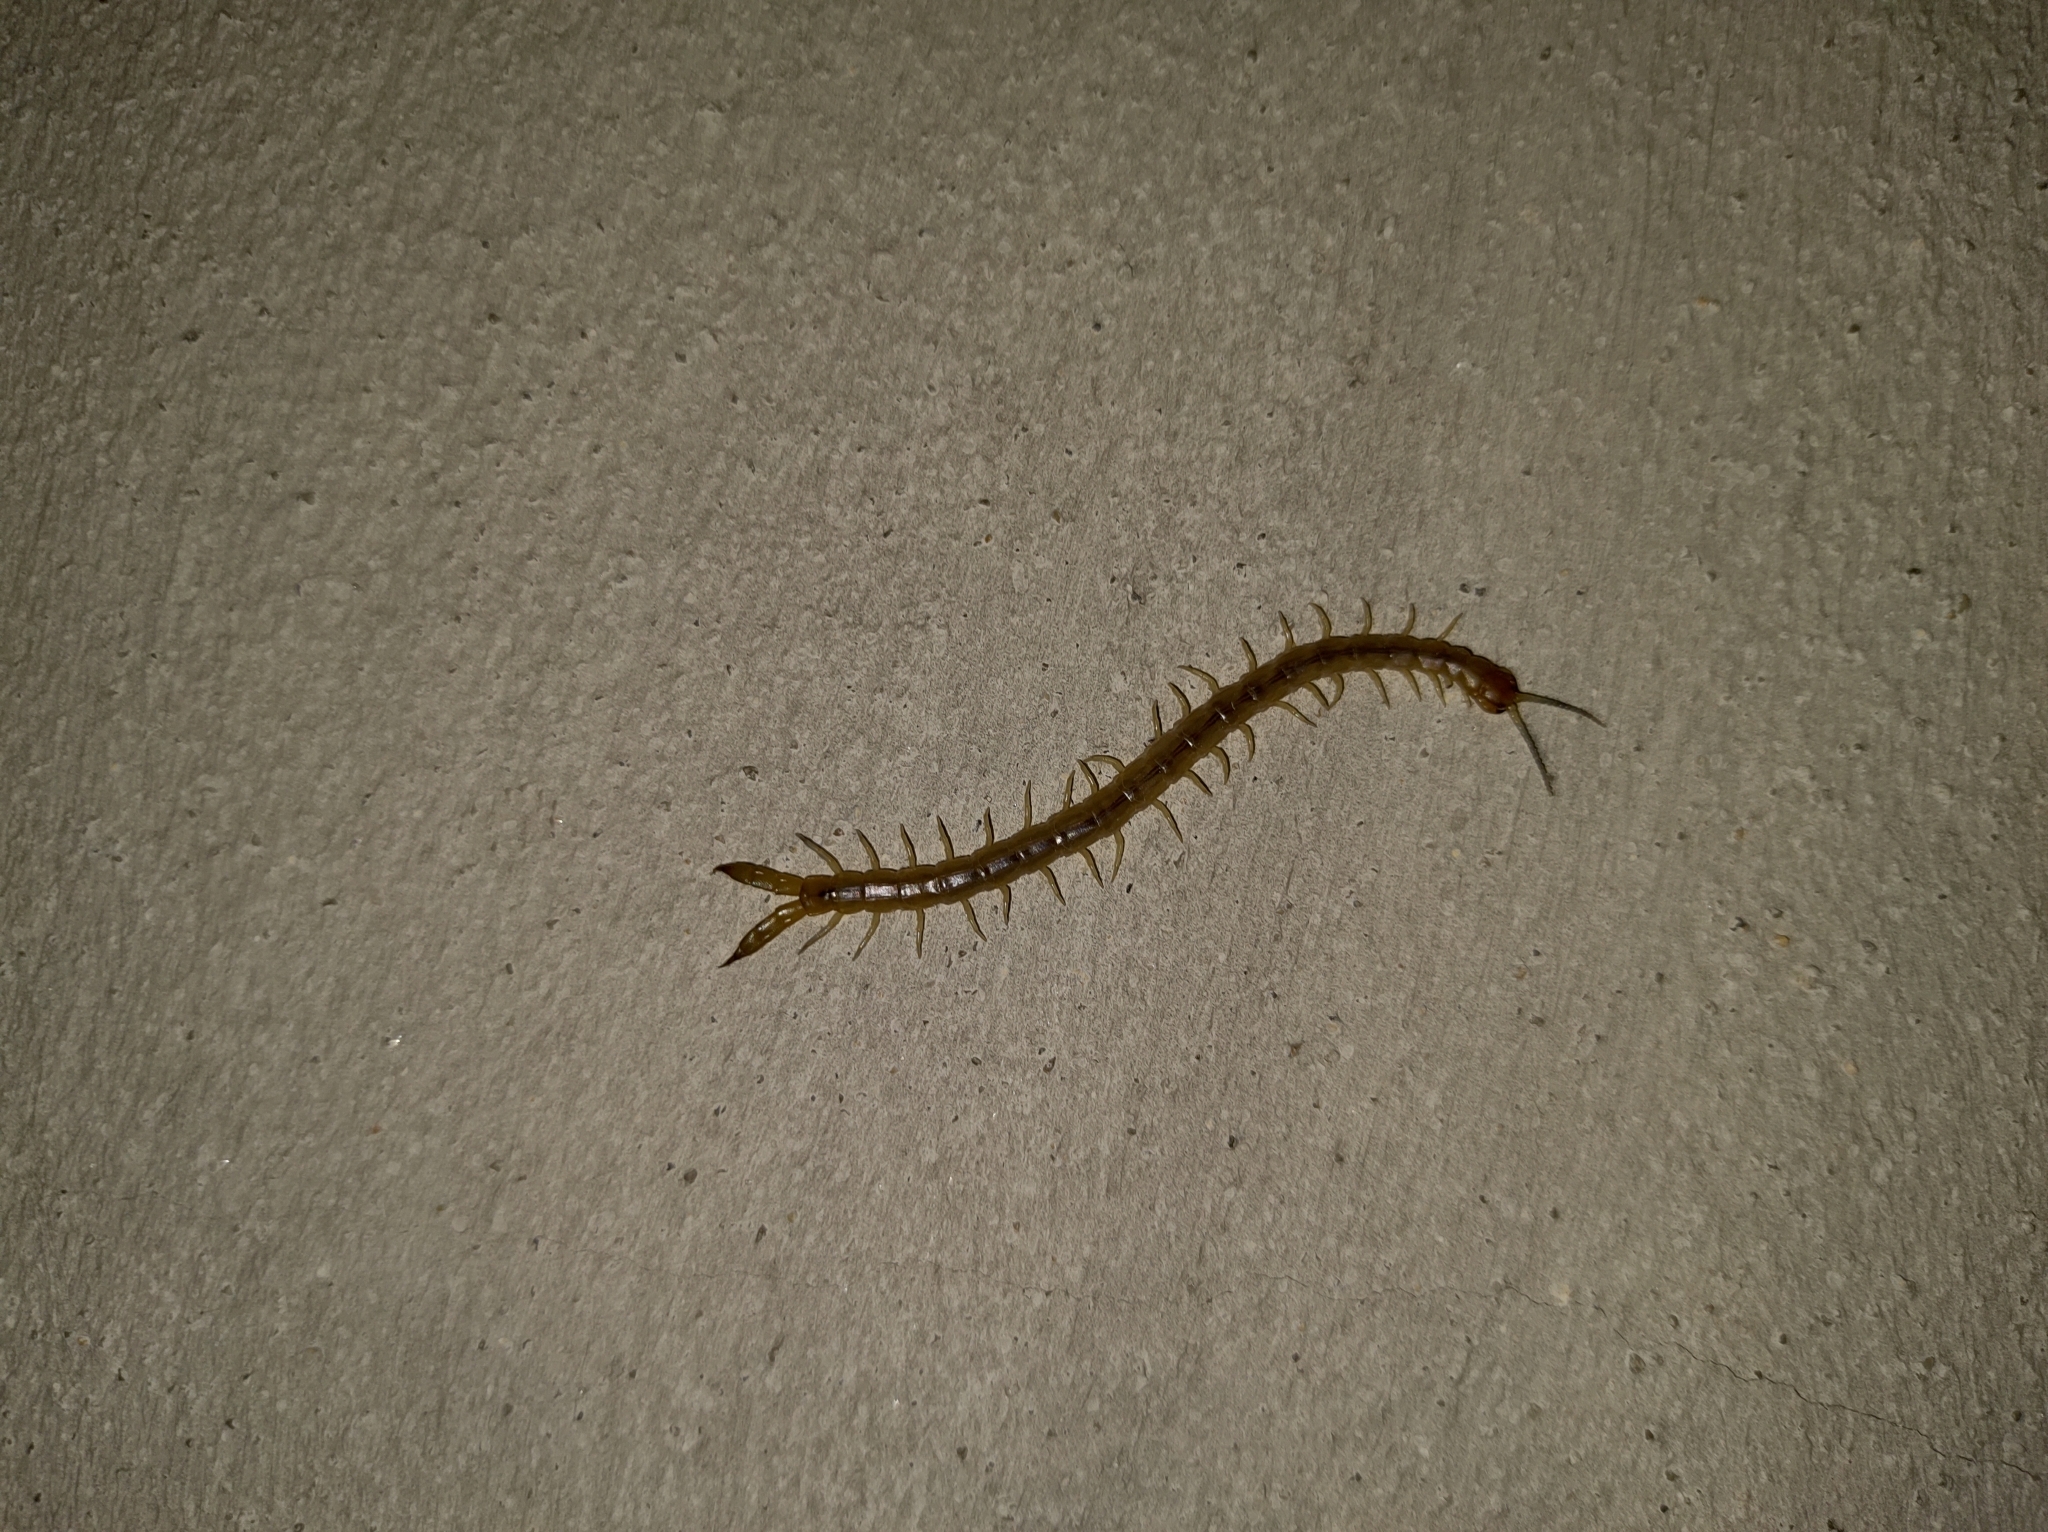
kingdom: Animalia
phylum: Arthropoda
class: Chilopoda
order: Scolopendromorpha
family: Scolopendridae
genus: Cormocephalus
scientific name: Cormocephalus guildingii
